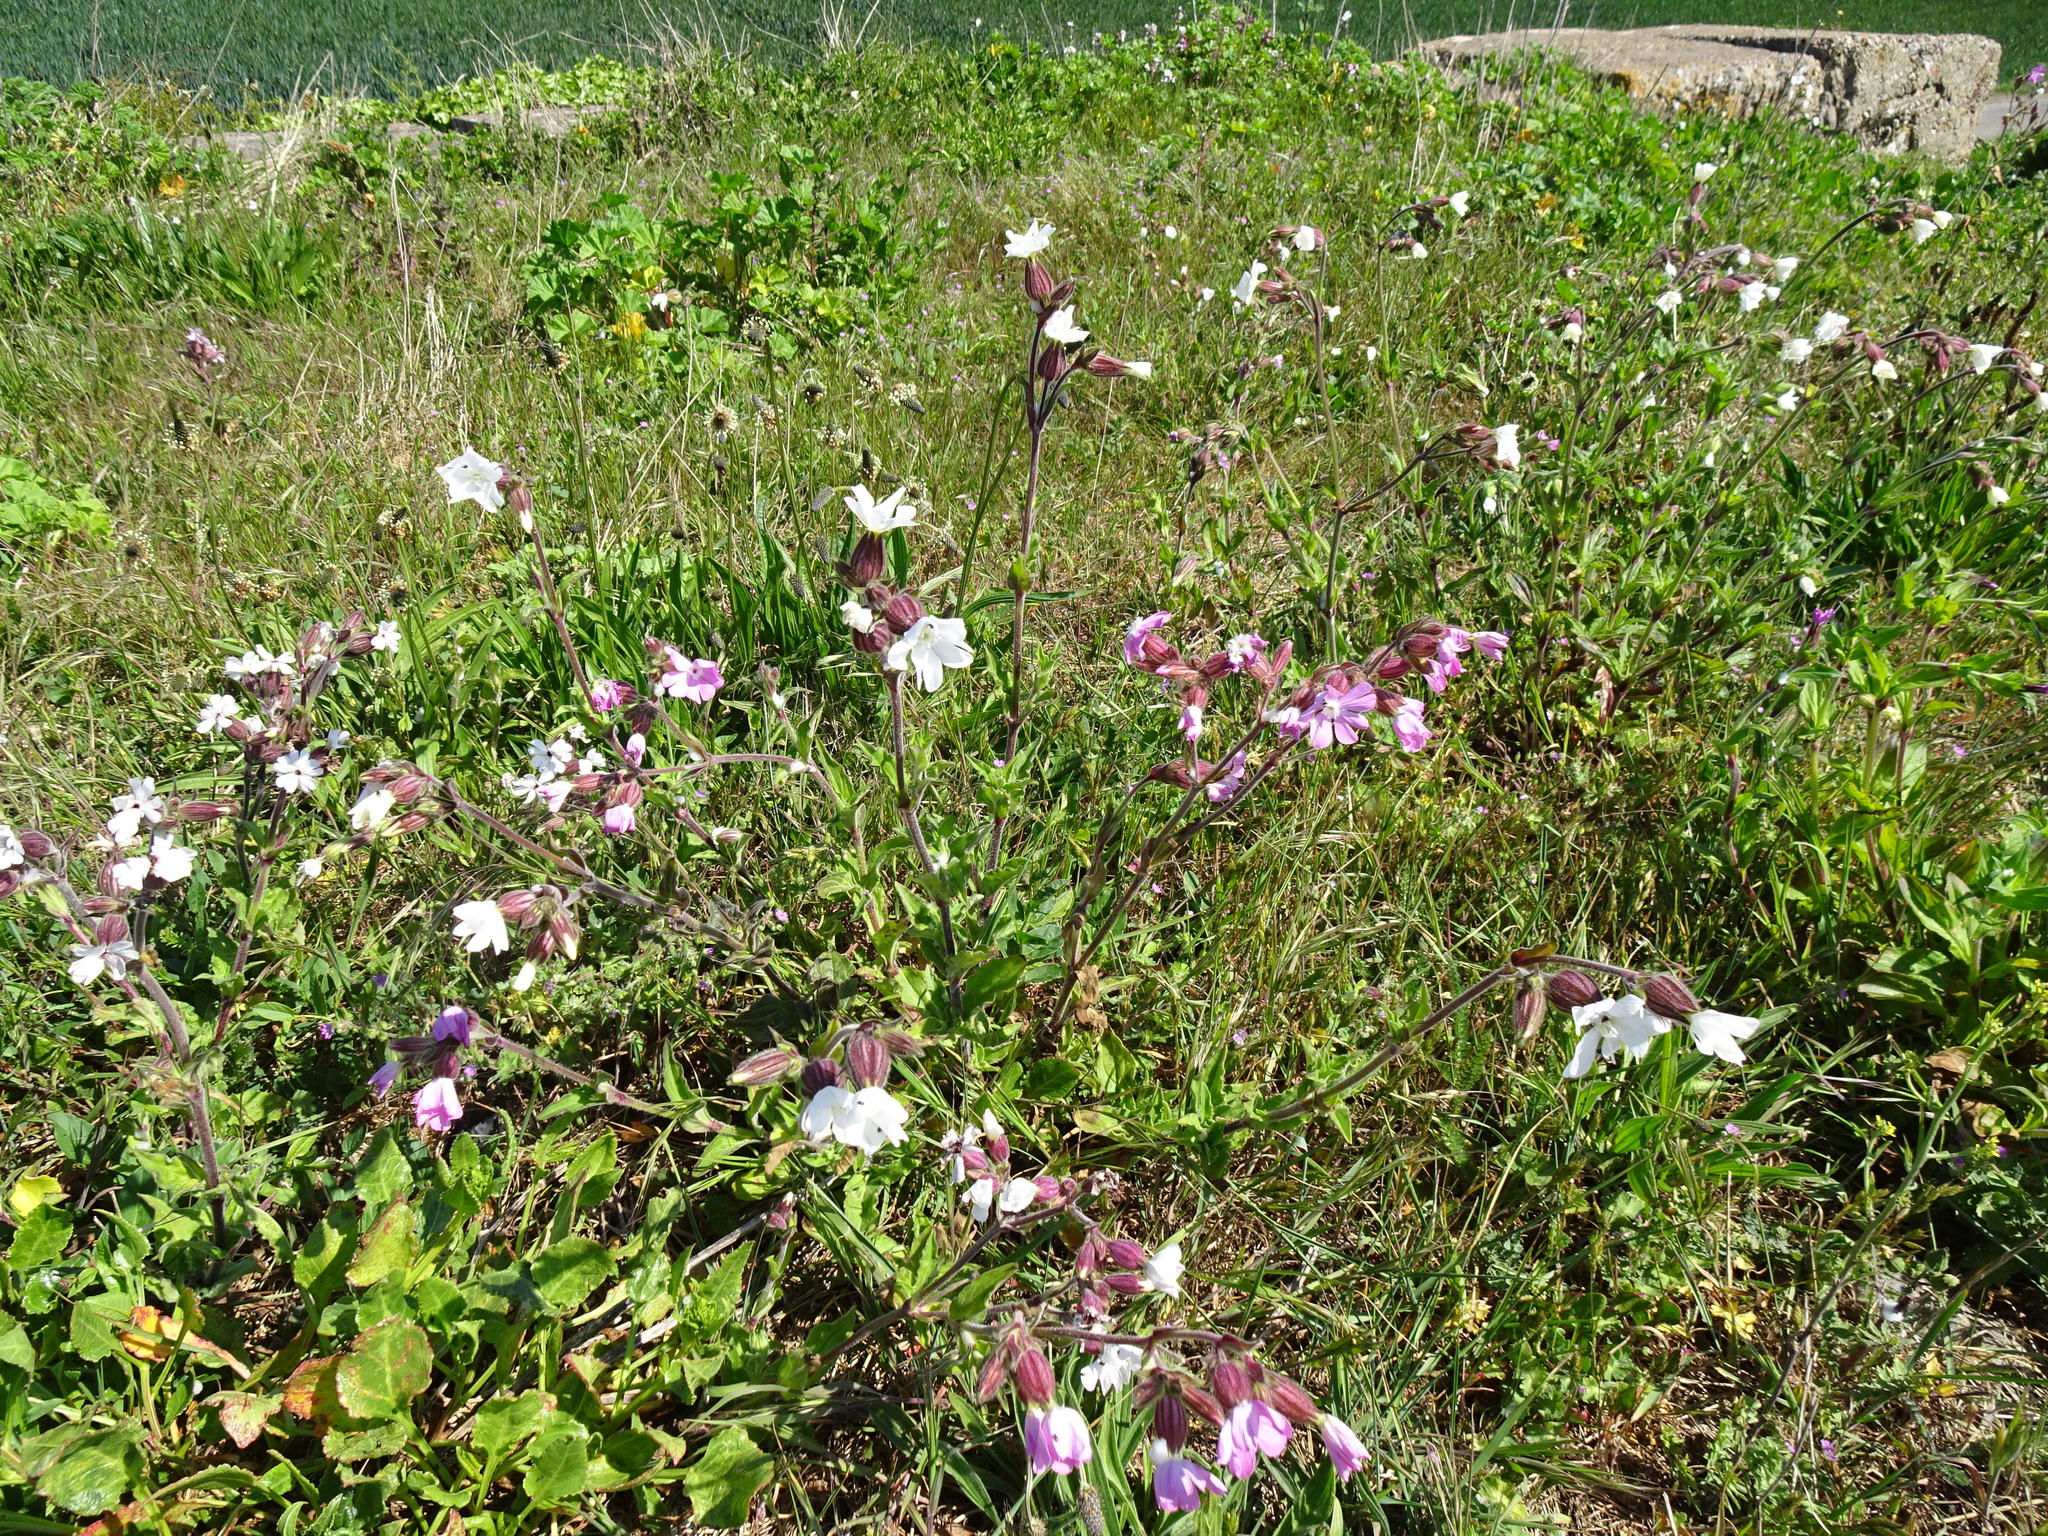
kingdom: Plantae
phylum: Tracheophyta
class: Magnoliopsida
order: Caryophyllales
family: Caryophyllaceae
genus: Silene
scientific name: Silene hampeana
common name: Catchfly
